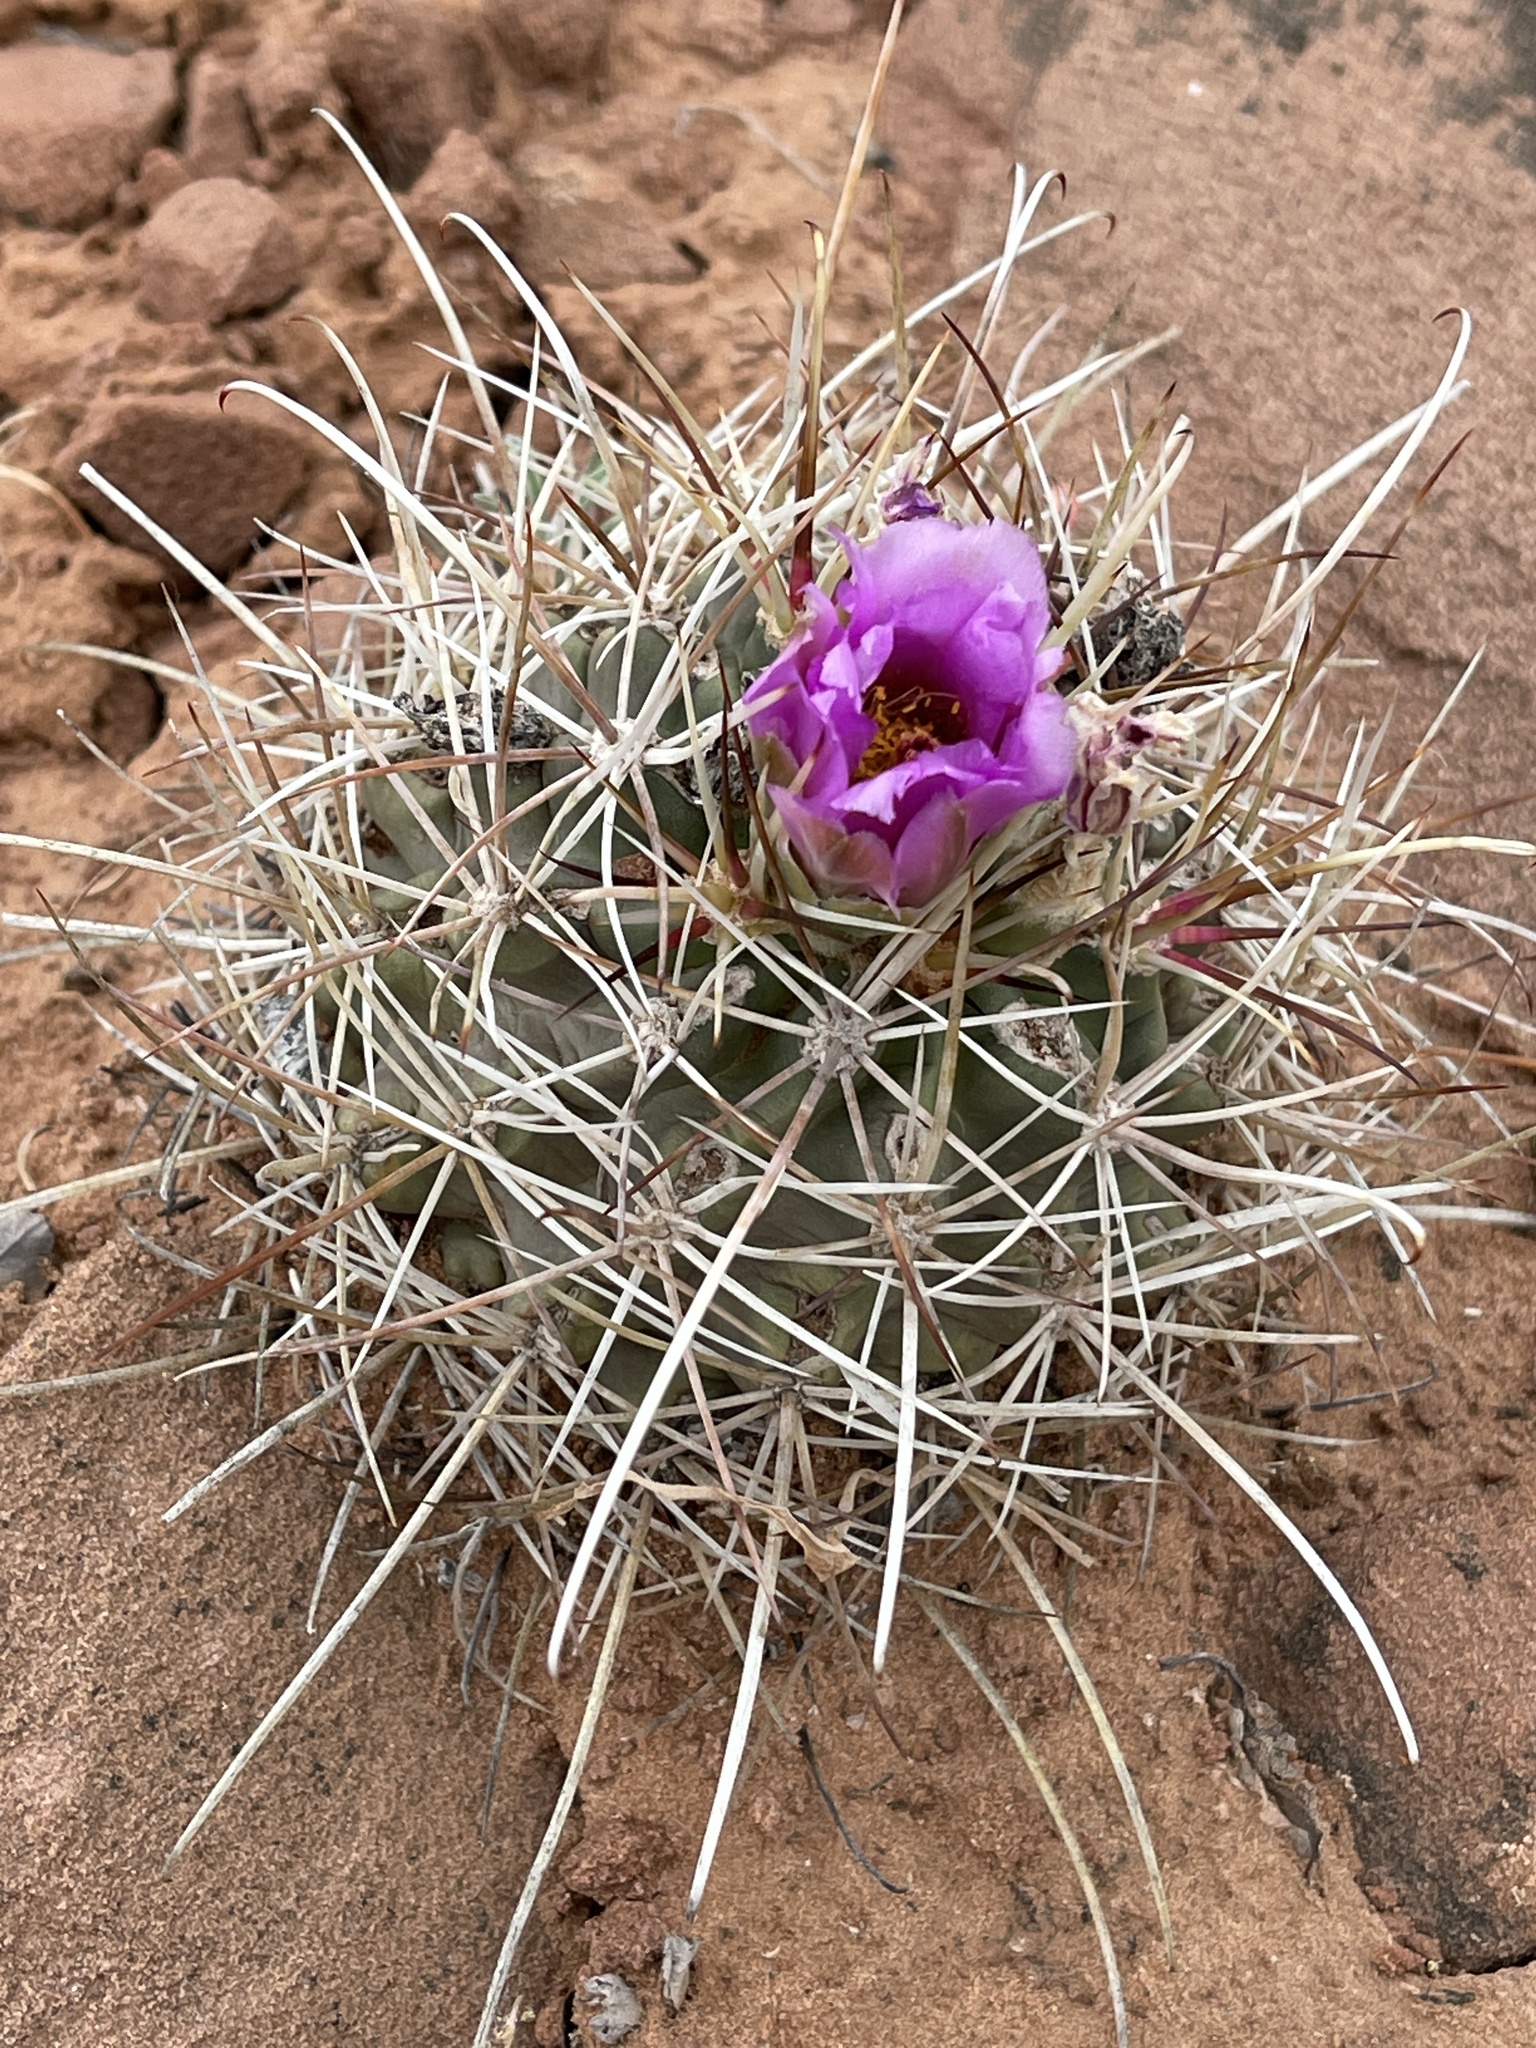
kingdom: Plantae
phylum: Tracheophyta
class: Magnoliopsida
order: Caryophyllales
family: Cactaceae
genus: Sclerocactus
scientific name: Sclerocactus parviflorus
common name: Small-flower fishhook cactus
